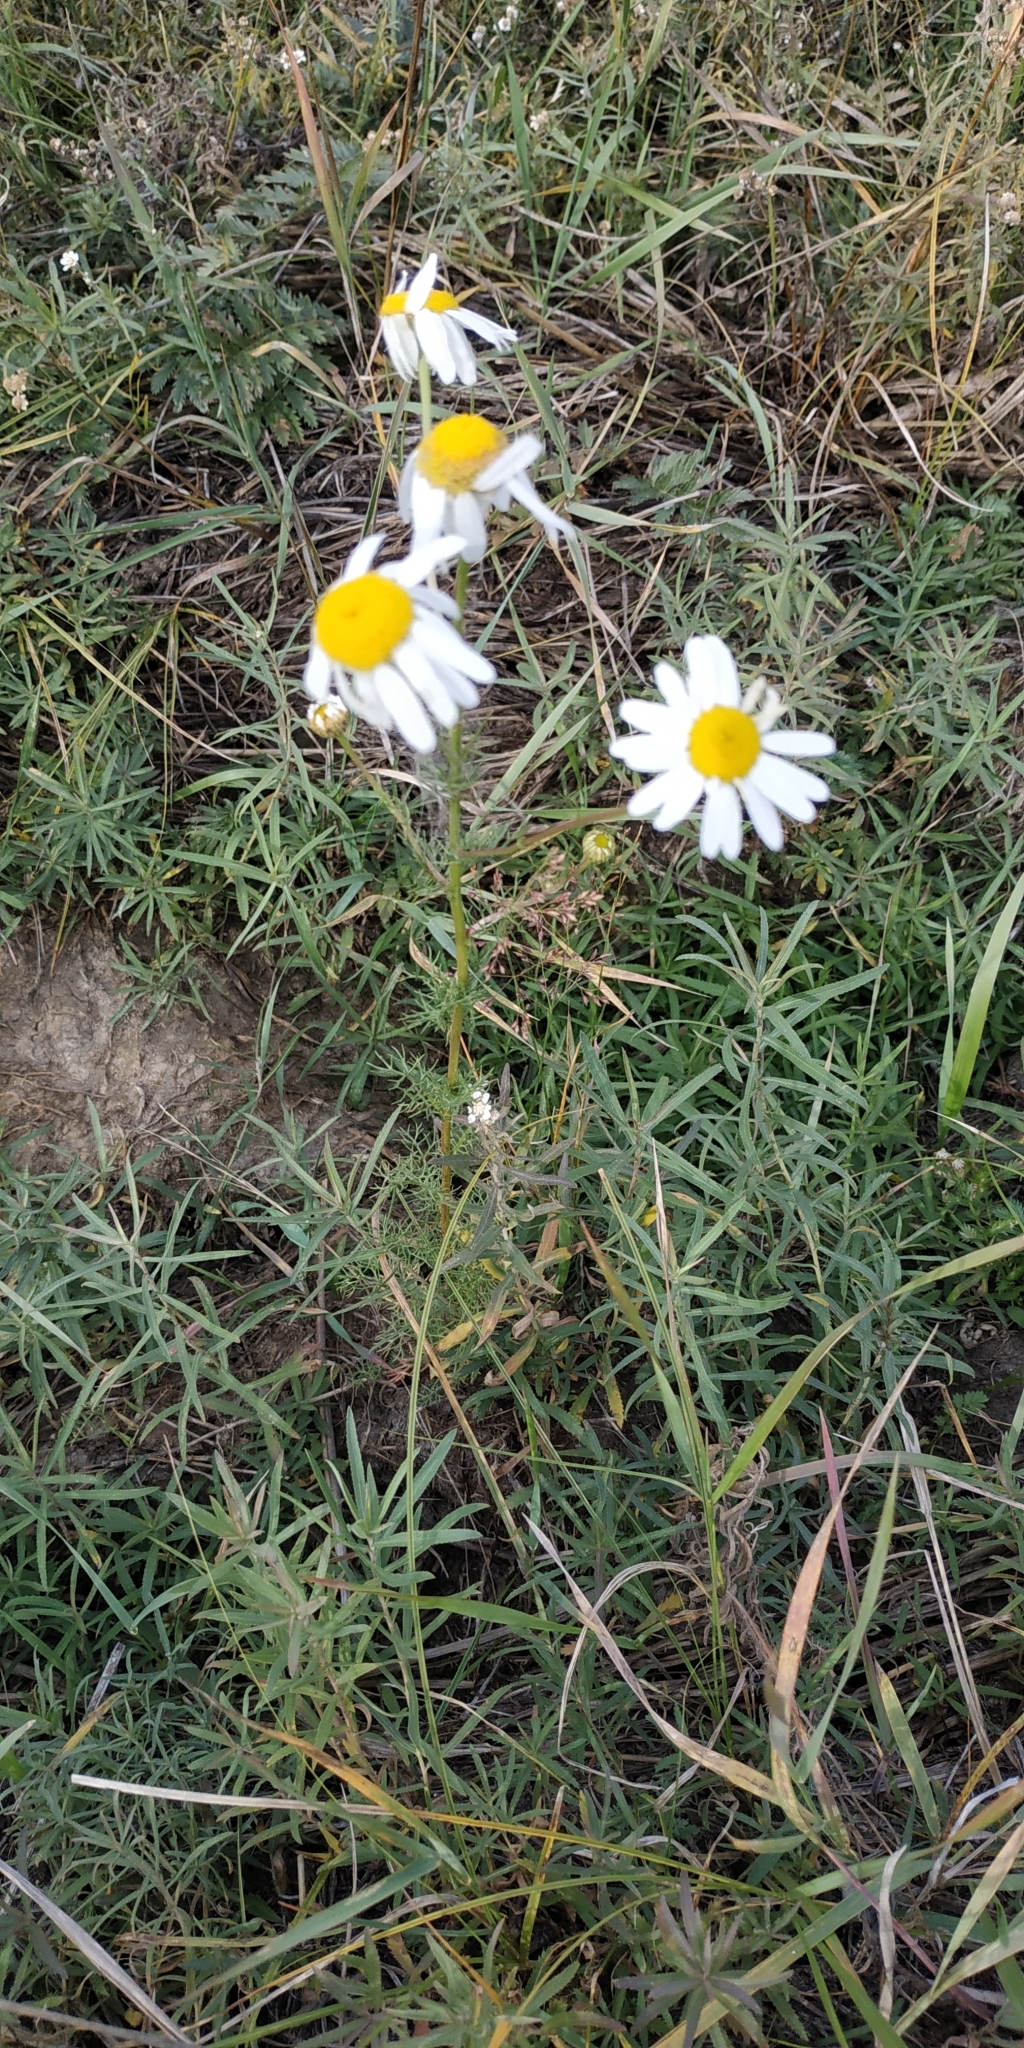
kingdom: Plantae
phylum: Tracheophyta
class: Magnoliopsida
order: Asterales
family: Asteraceae
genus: Tripleurospermum
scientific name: Tripleurospermum inodorum
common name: Scentless mayweed
